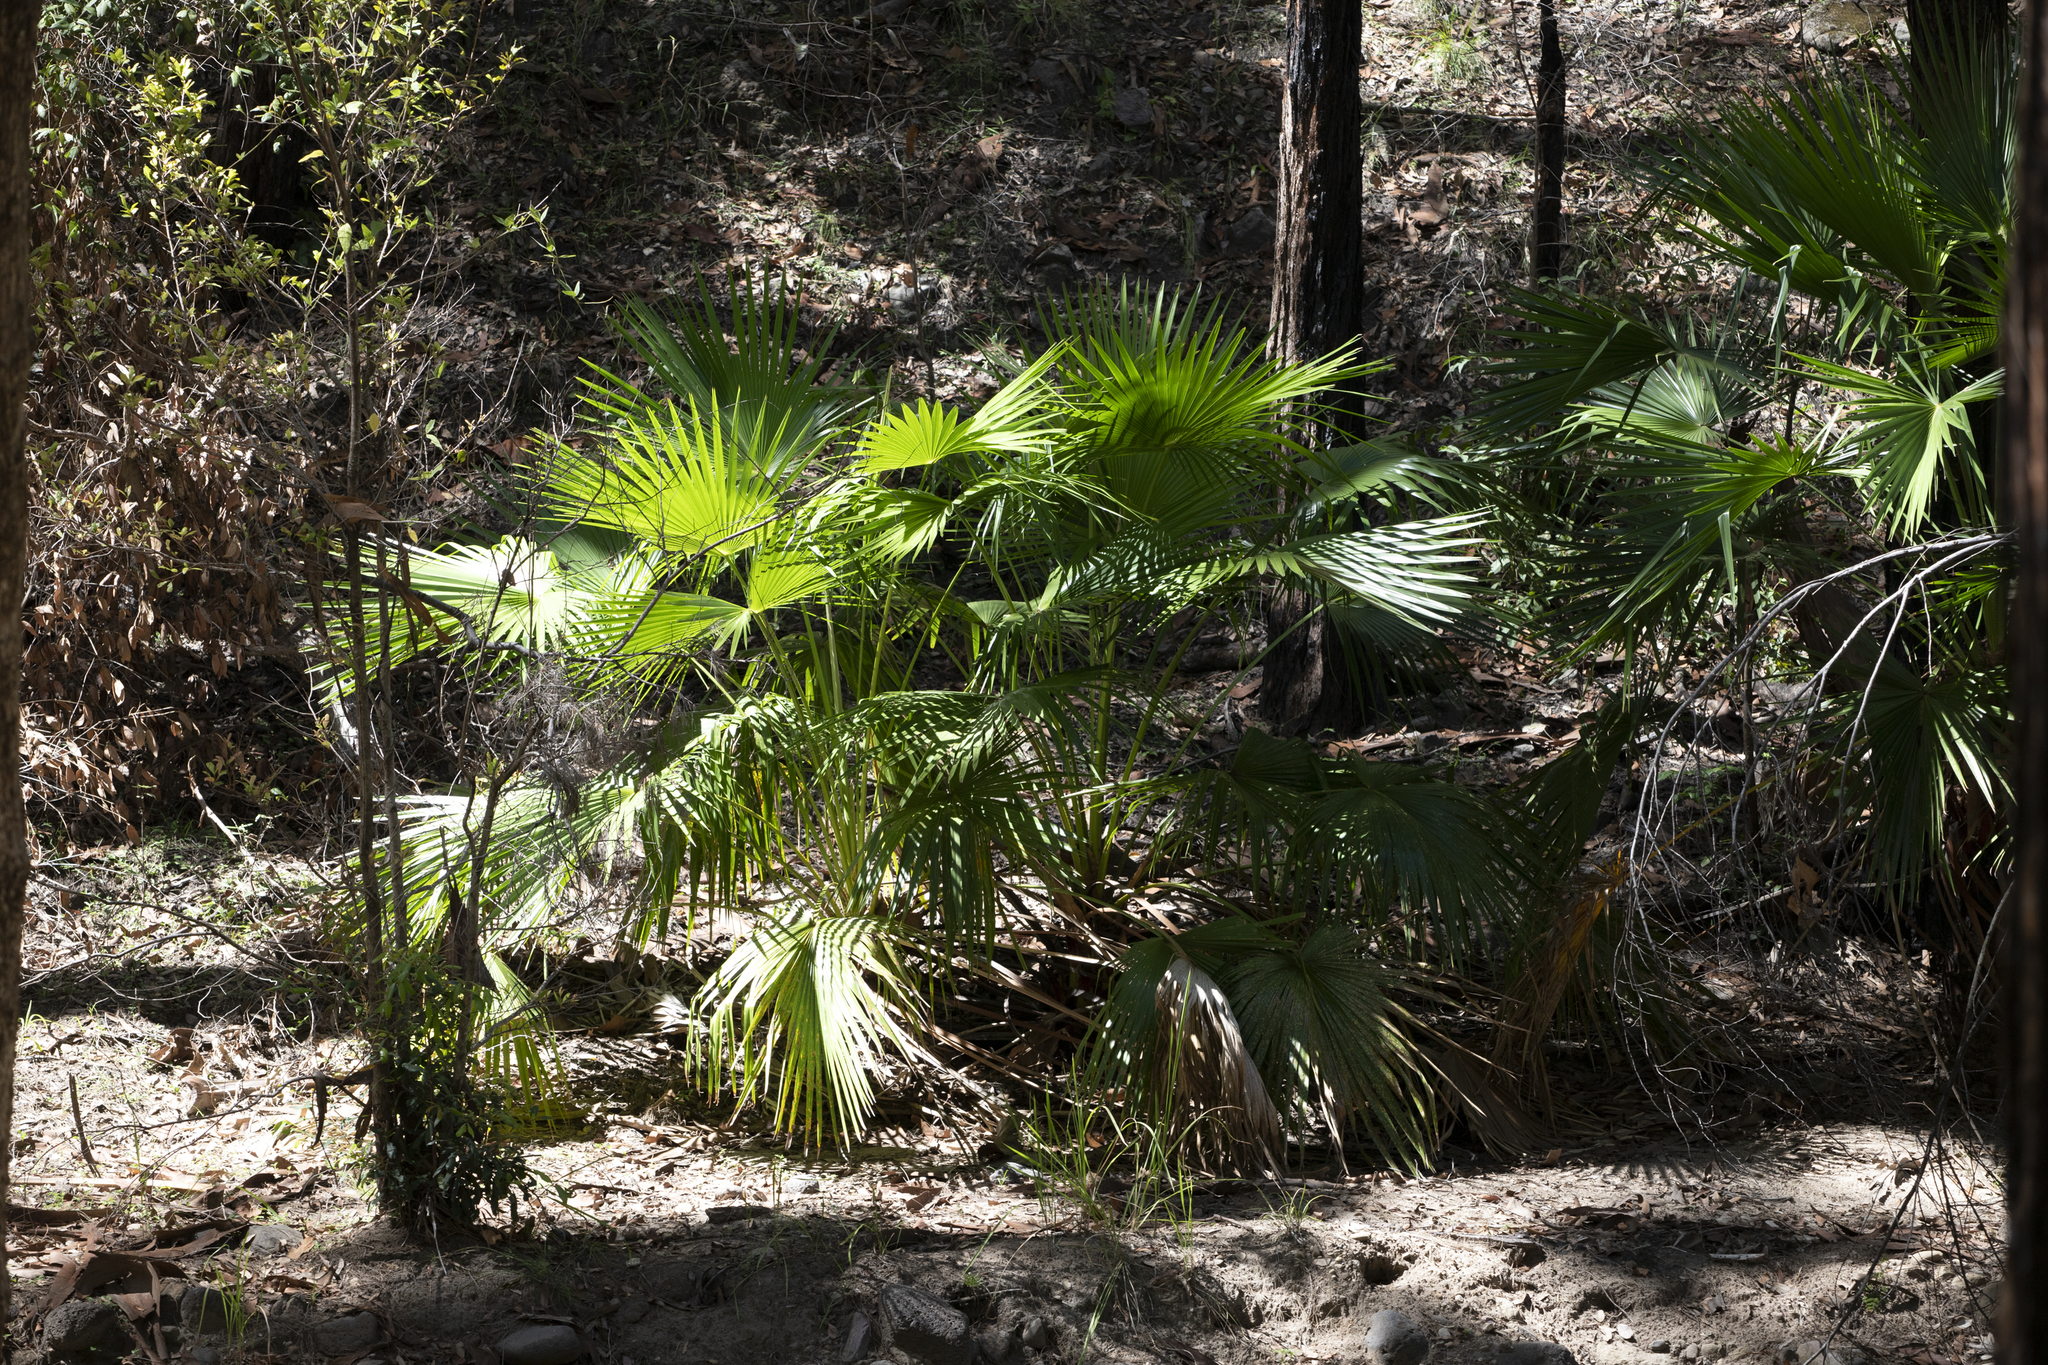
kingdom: Plantae
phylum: Tracheophyta
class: Liliopsida
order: Arecales
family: Arecaceae
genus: Livistona
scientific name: Livistona nitida
